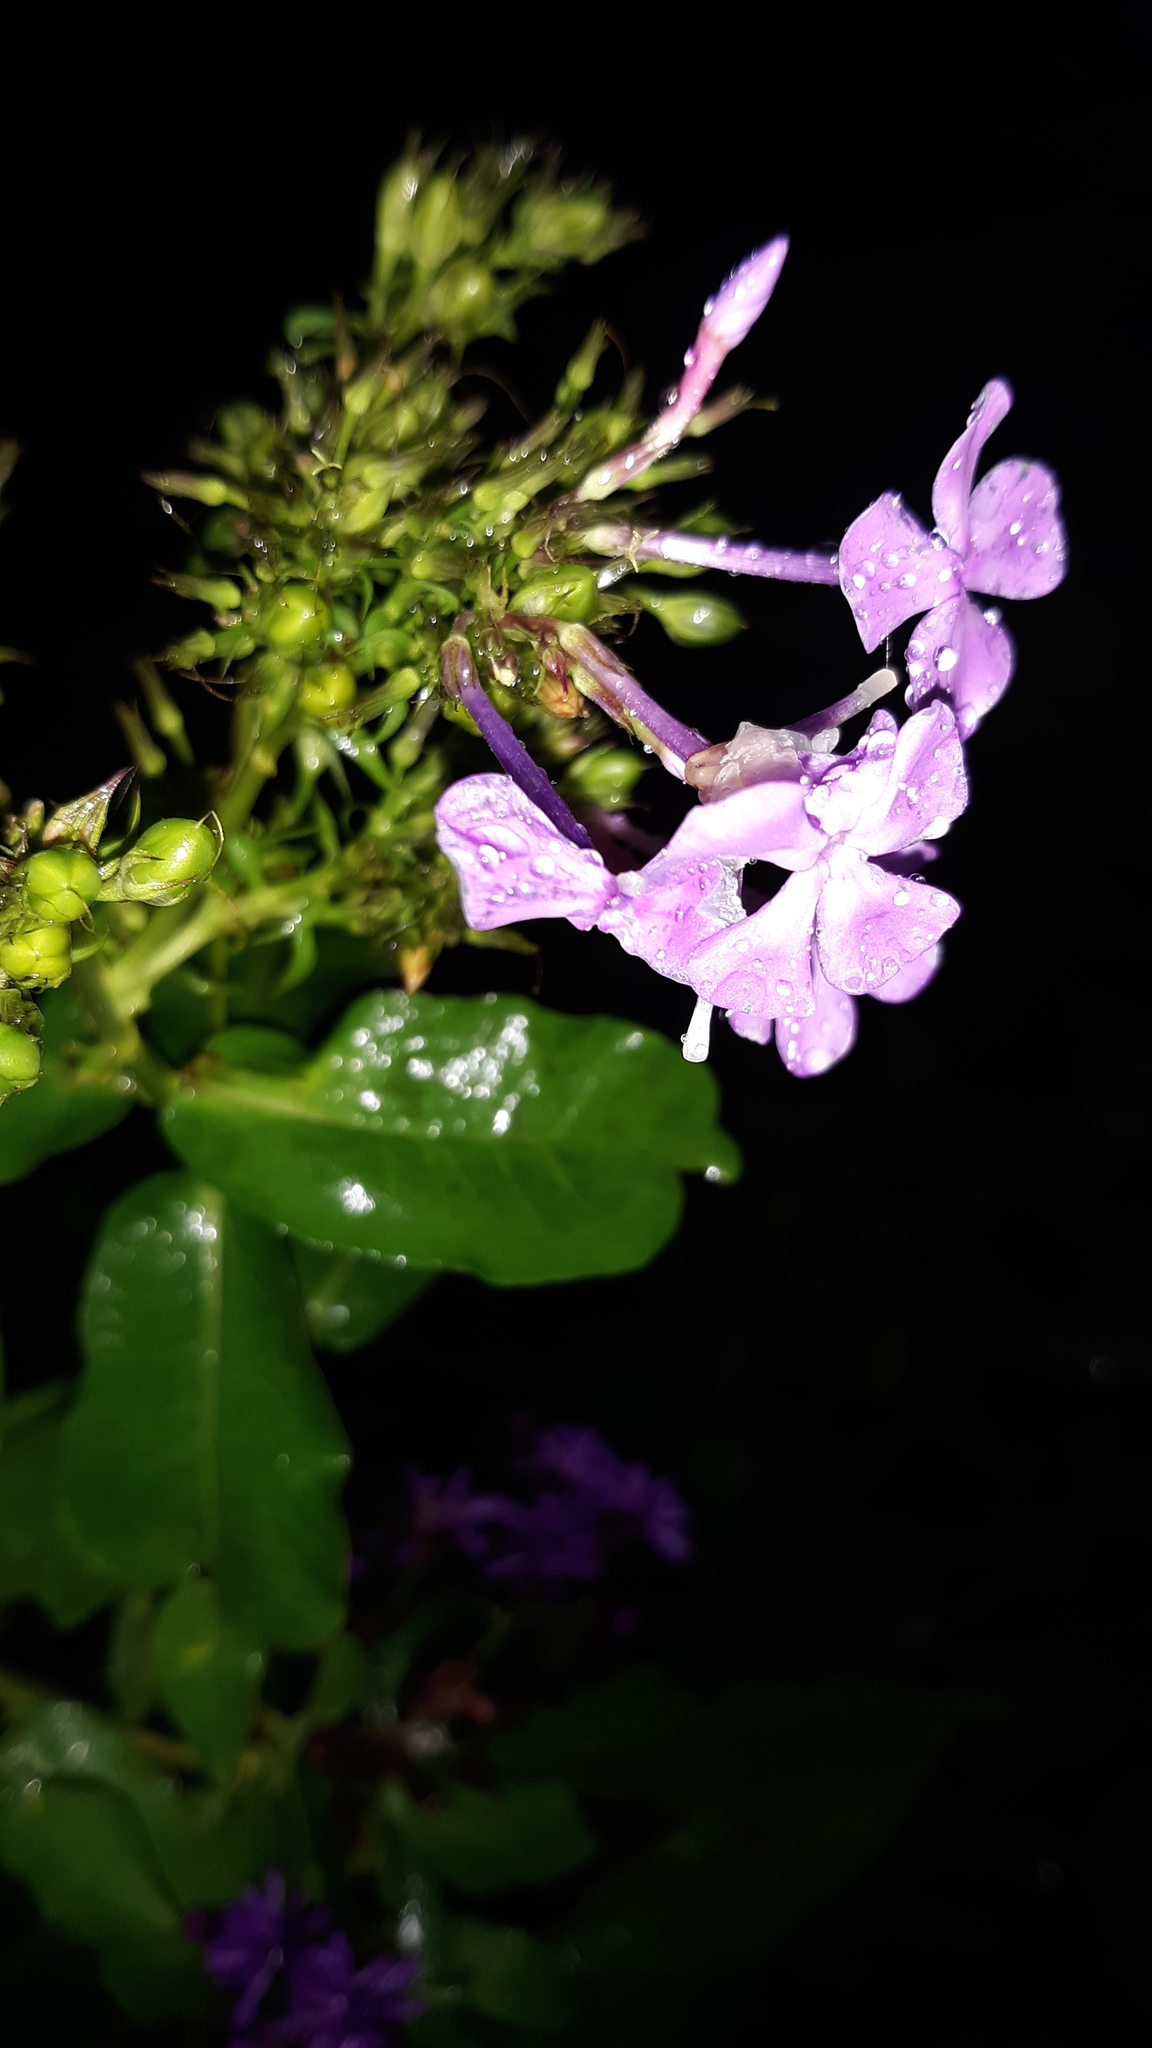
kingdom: Plantae
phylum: Tracheophyta
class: Magnoliopsida
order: Ericales
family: Polemoniaceae
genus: Phlox
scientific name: Phlox paniculata
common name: Fall phlox
